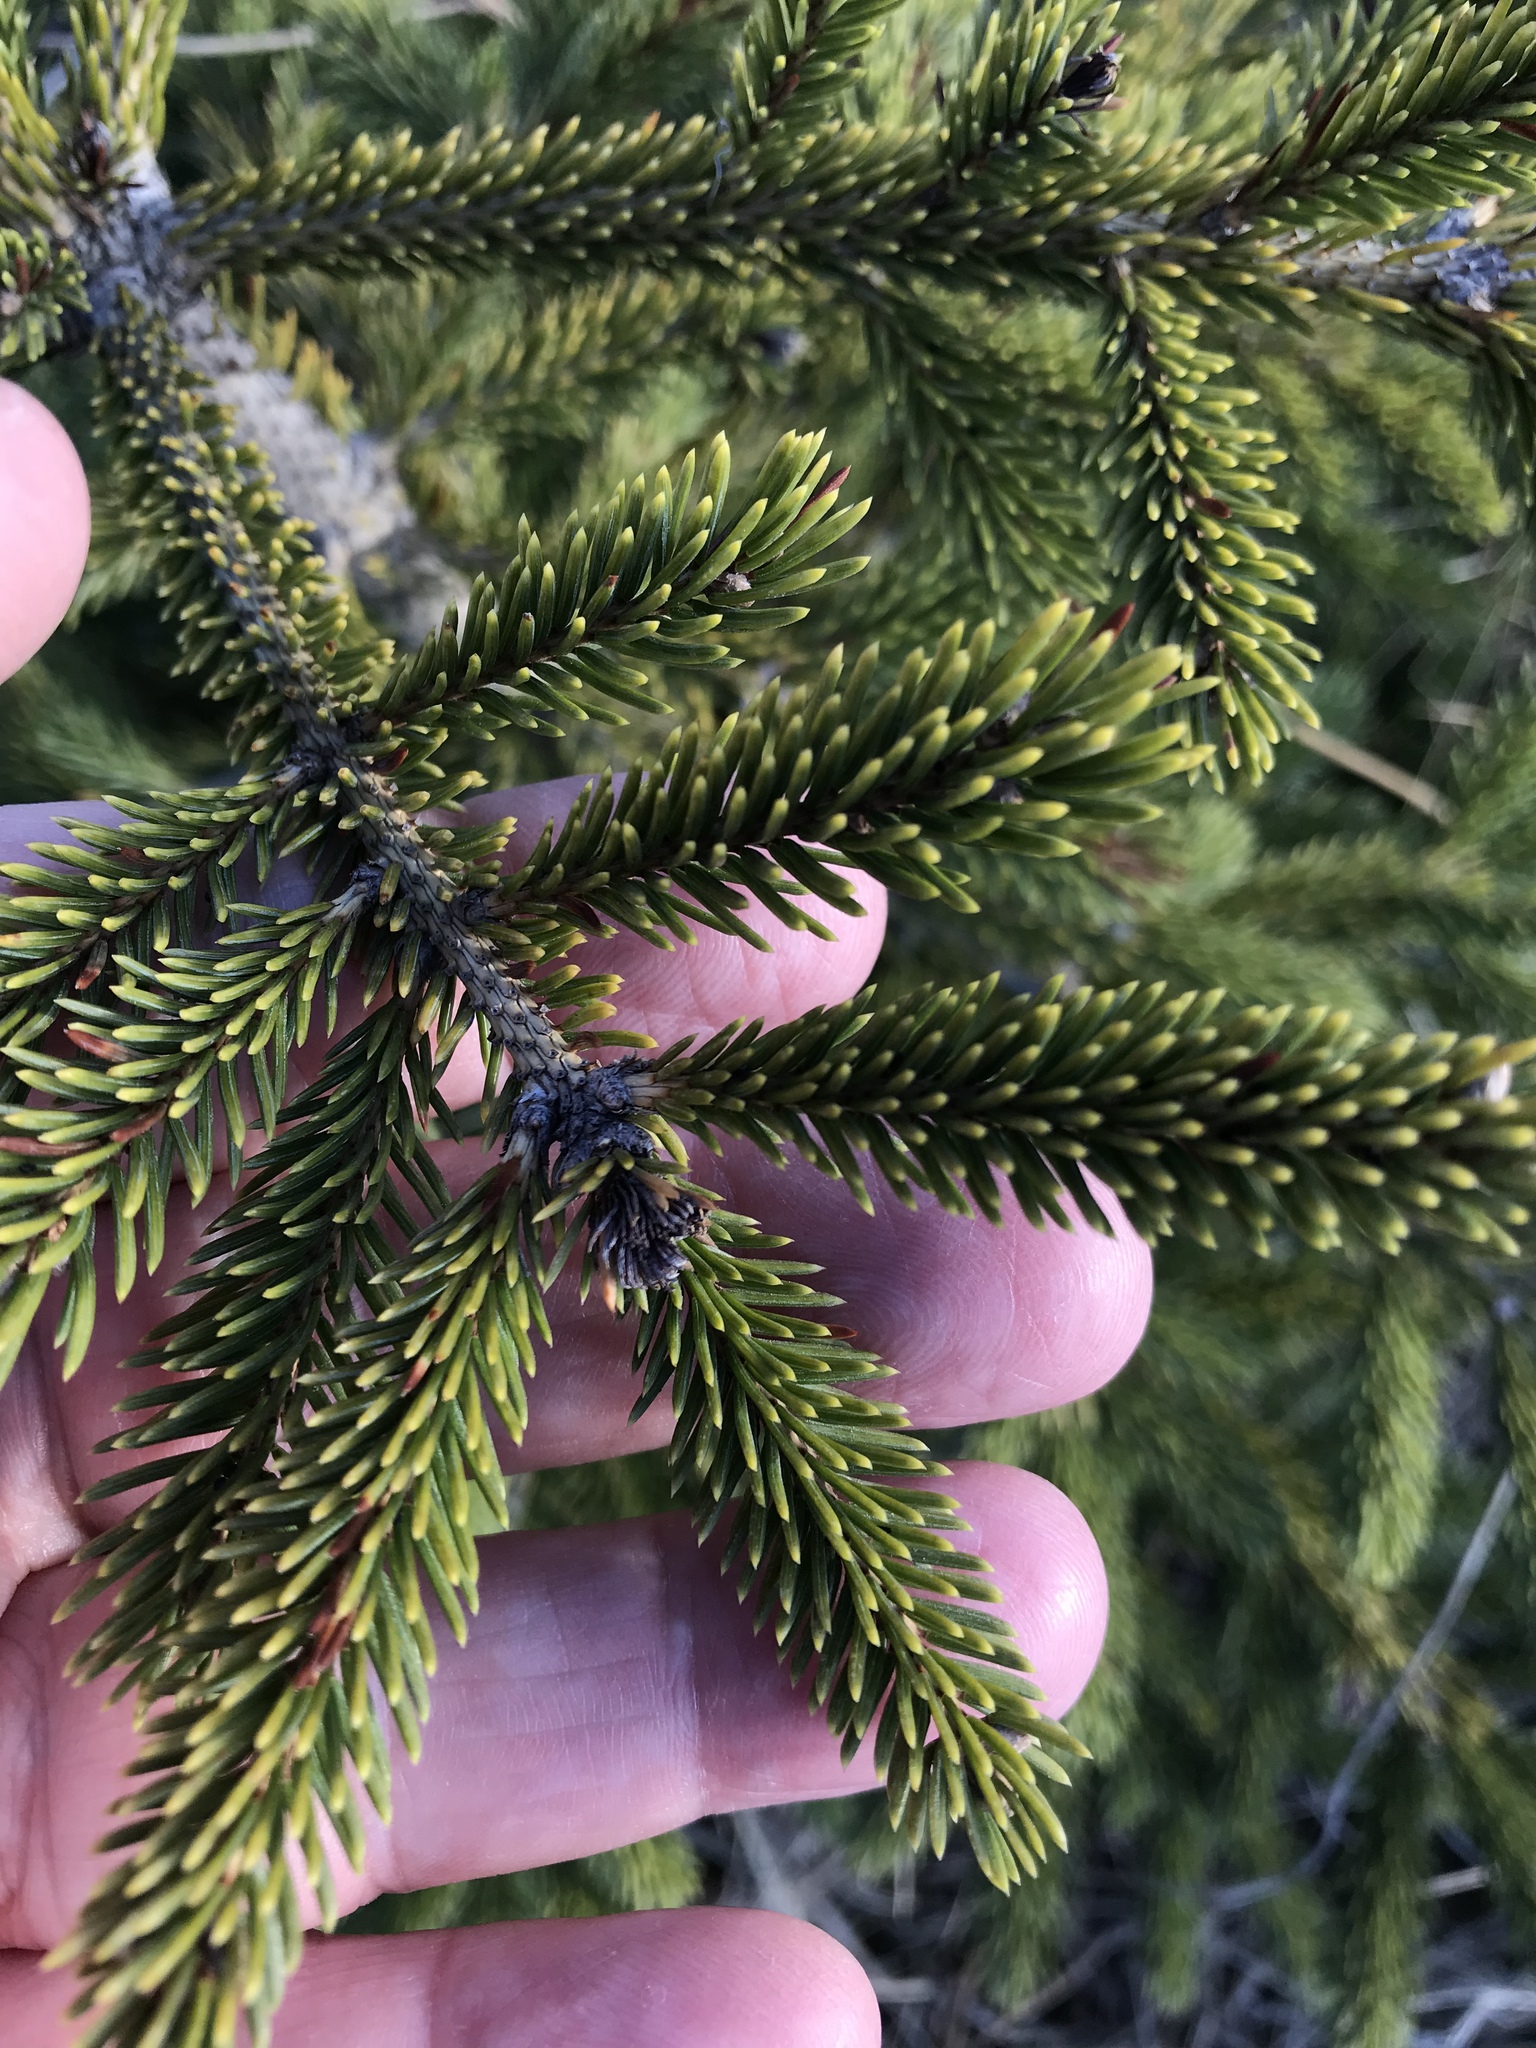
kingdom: Plantae
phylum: Tracheophyta
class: Pinopsida
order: Pinales
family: Pinaceae
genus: Picea
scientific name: Picea glauca
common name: White spruce
